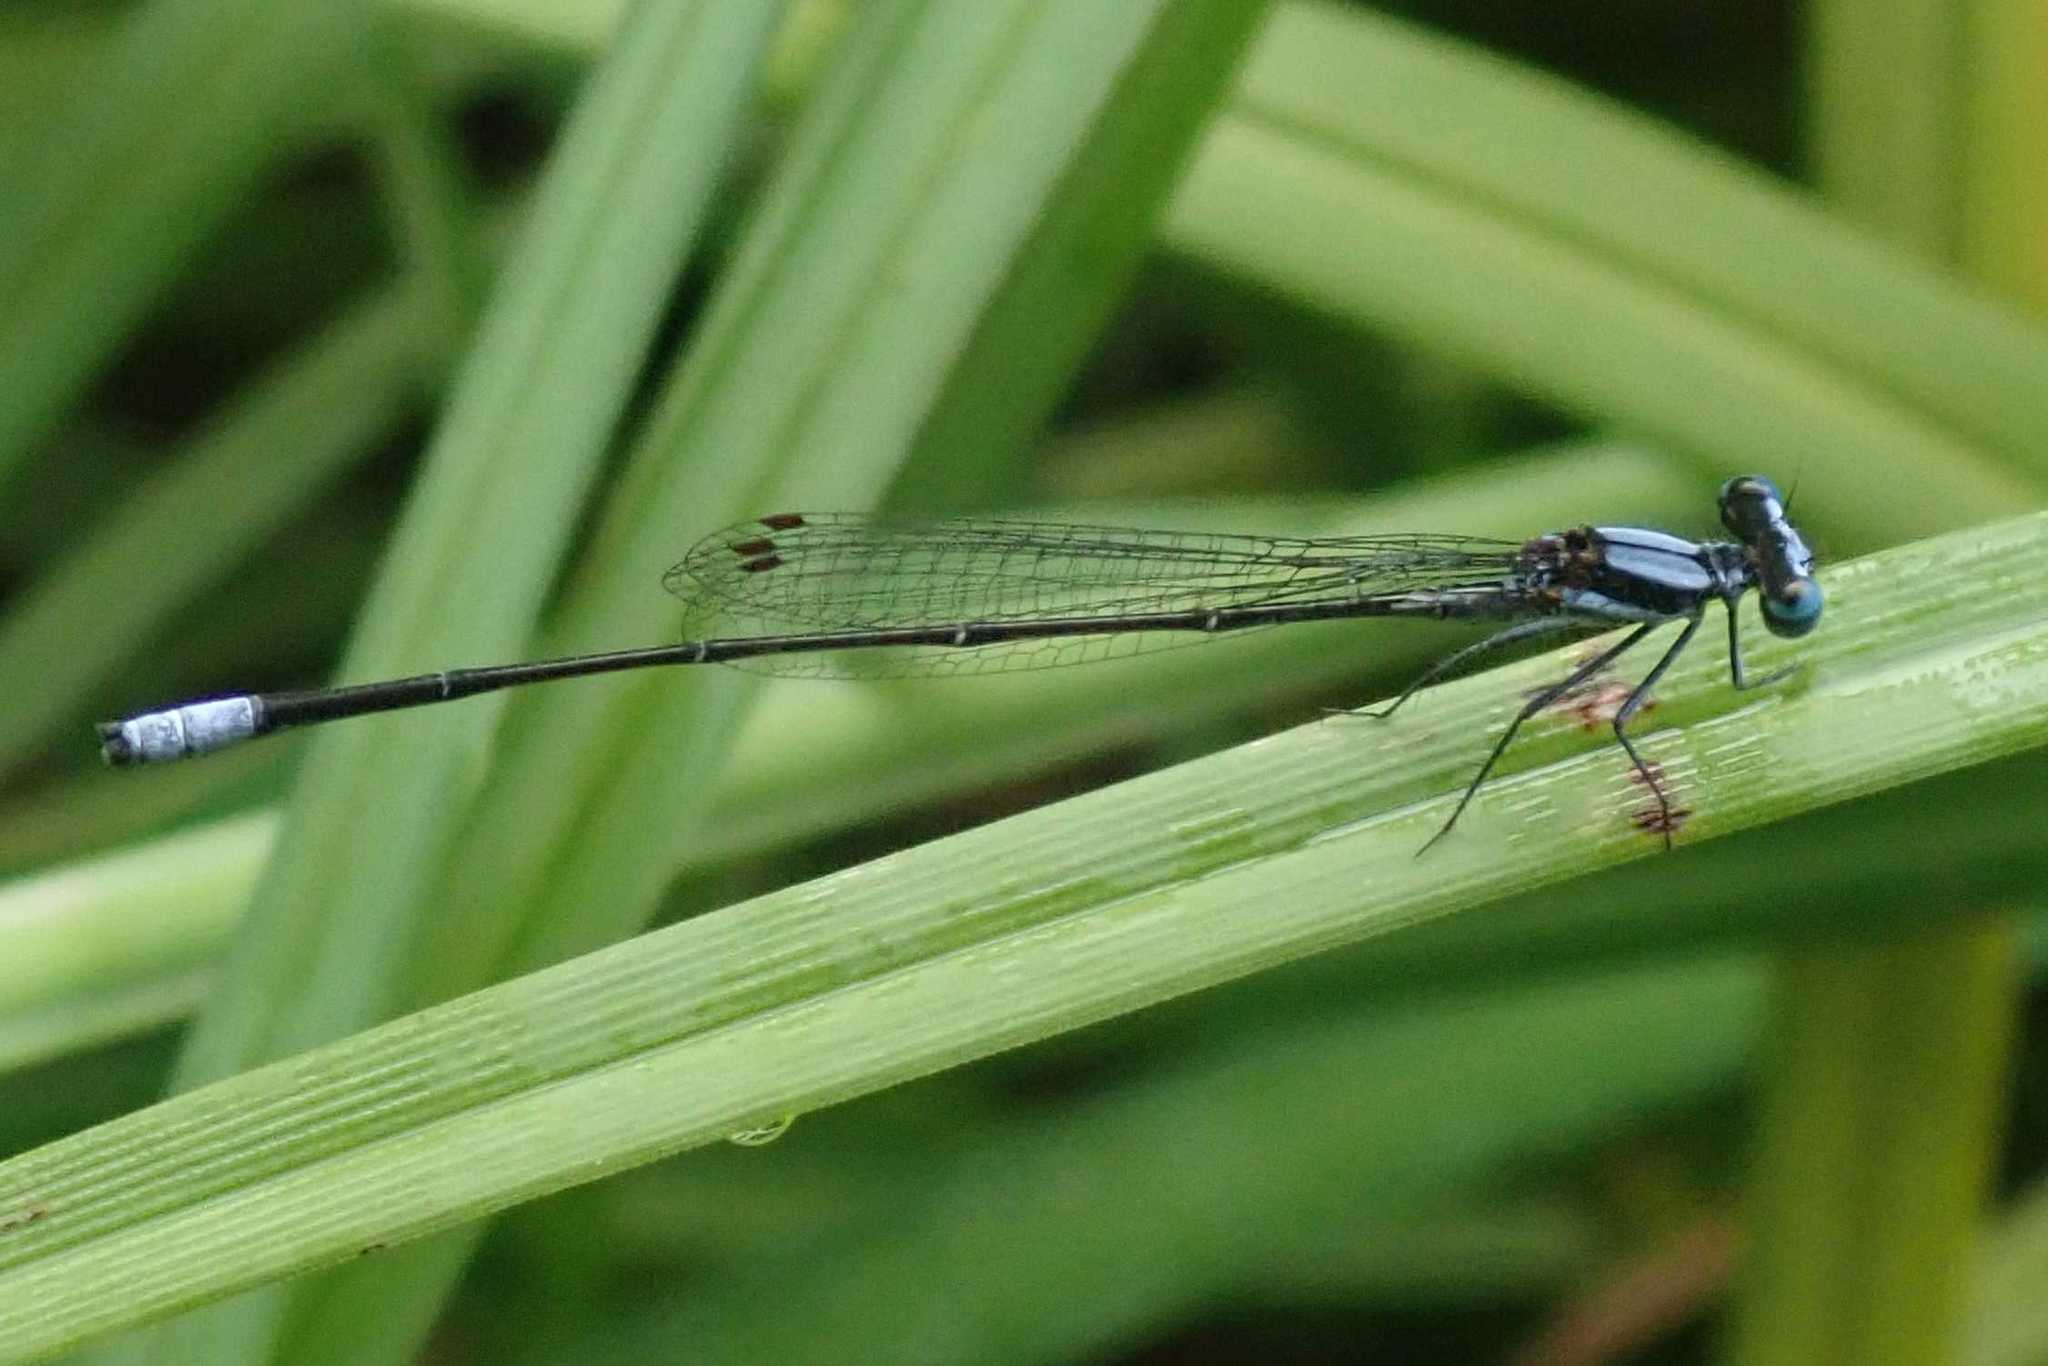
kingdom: Animalia
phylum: Arthropoda
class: Insecta
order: Odonata
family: Platycnemididae
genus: Elattoneura
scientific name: Elattoneura glauca
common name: Common threadtail
